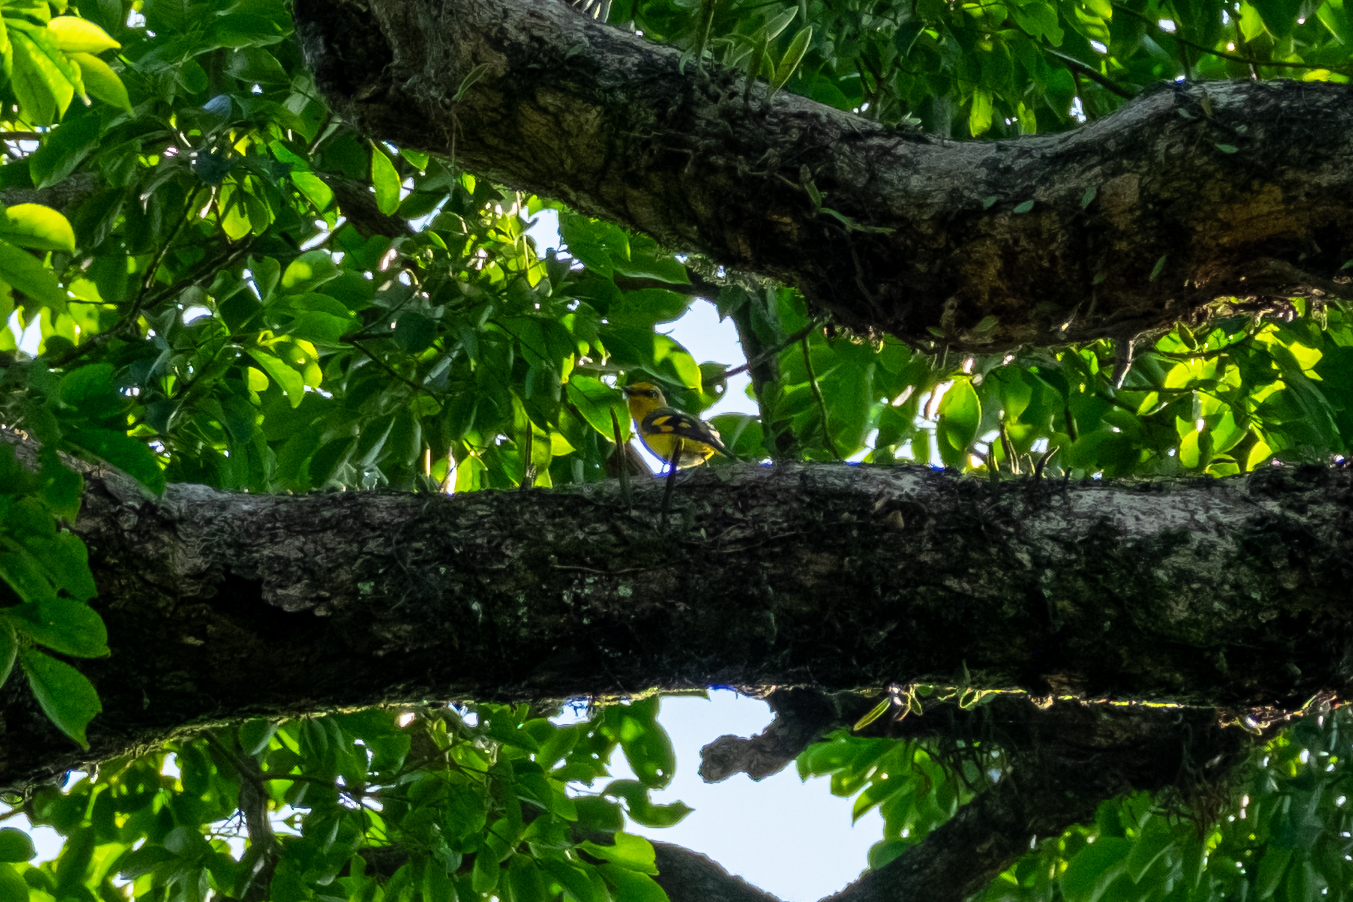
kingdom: Animalia
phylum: Chordata
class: Aves
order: Passeriformes
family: Campephagidae
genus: Pericrocotus
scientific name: Pericrocotus speciosus
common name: Scarlet minivet
